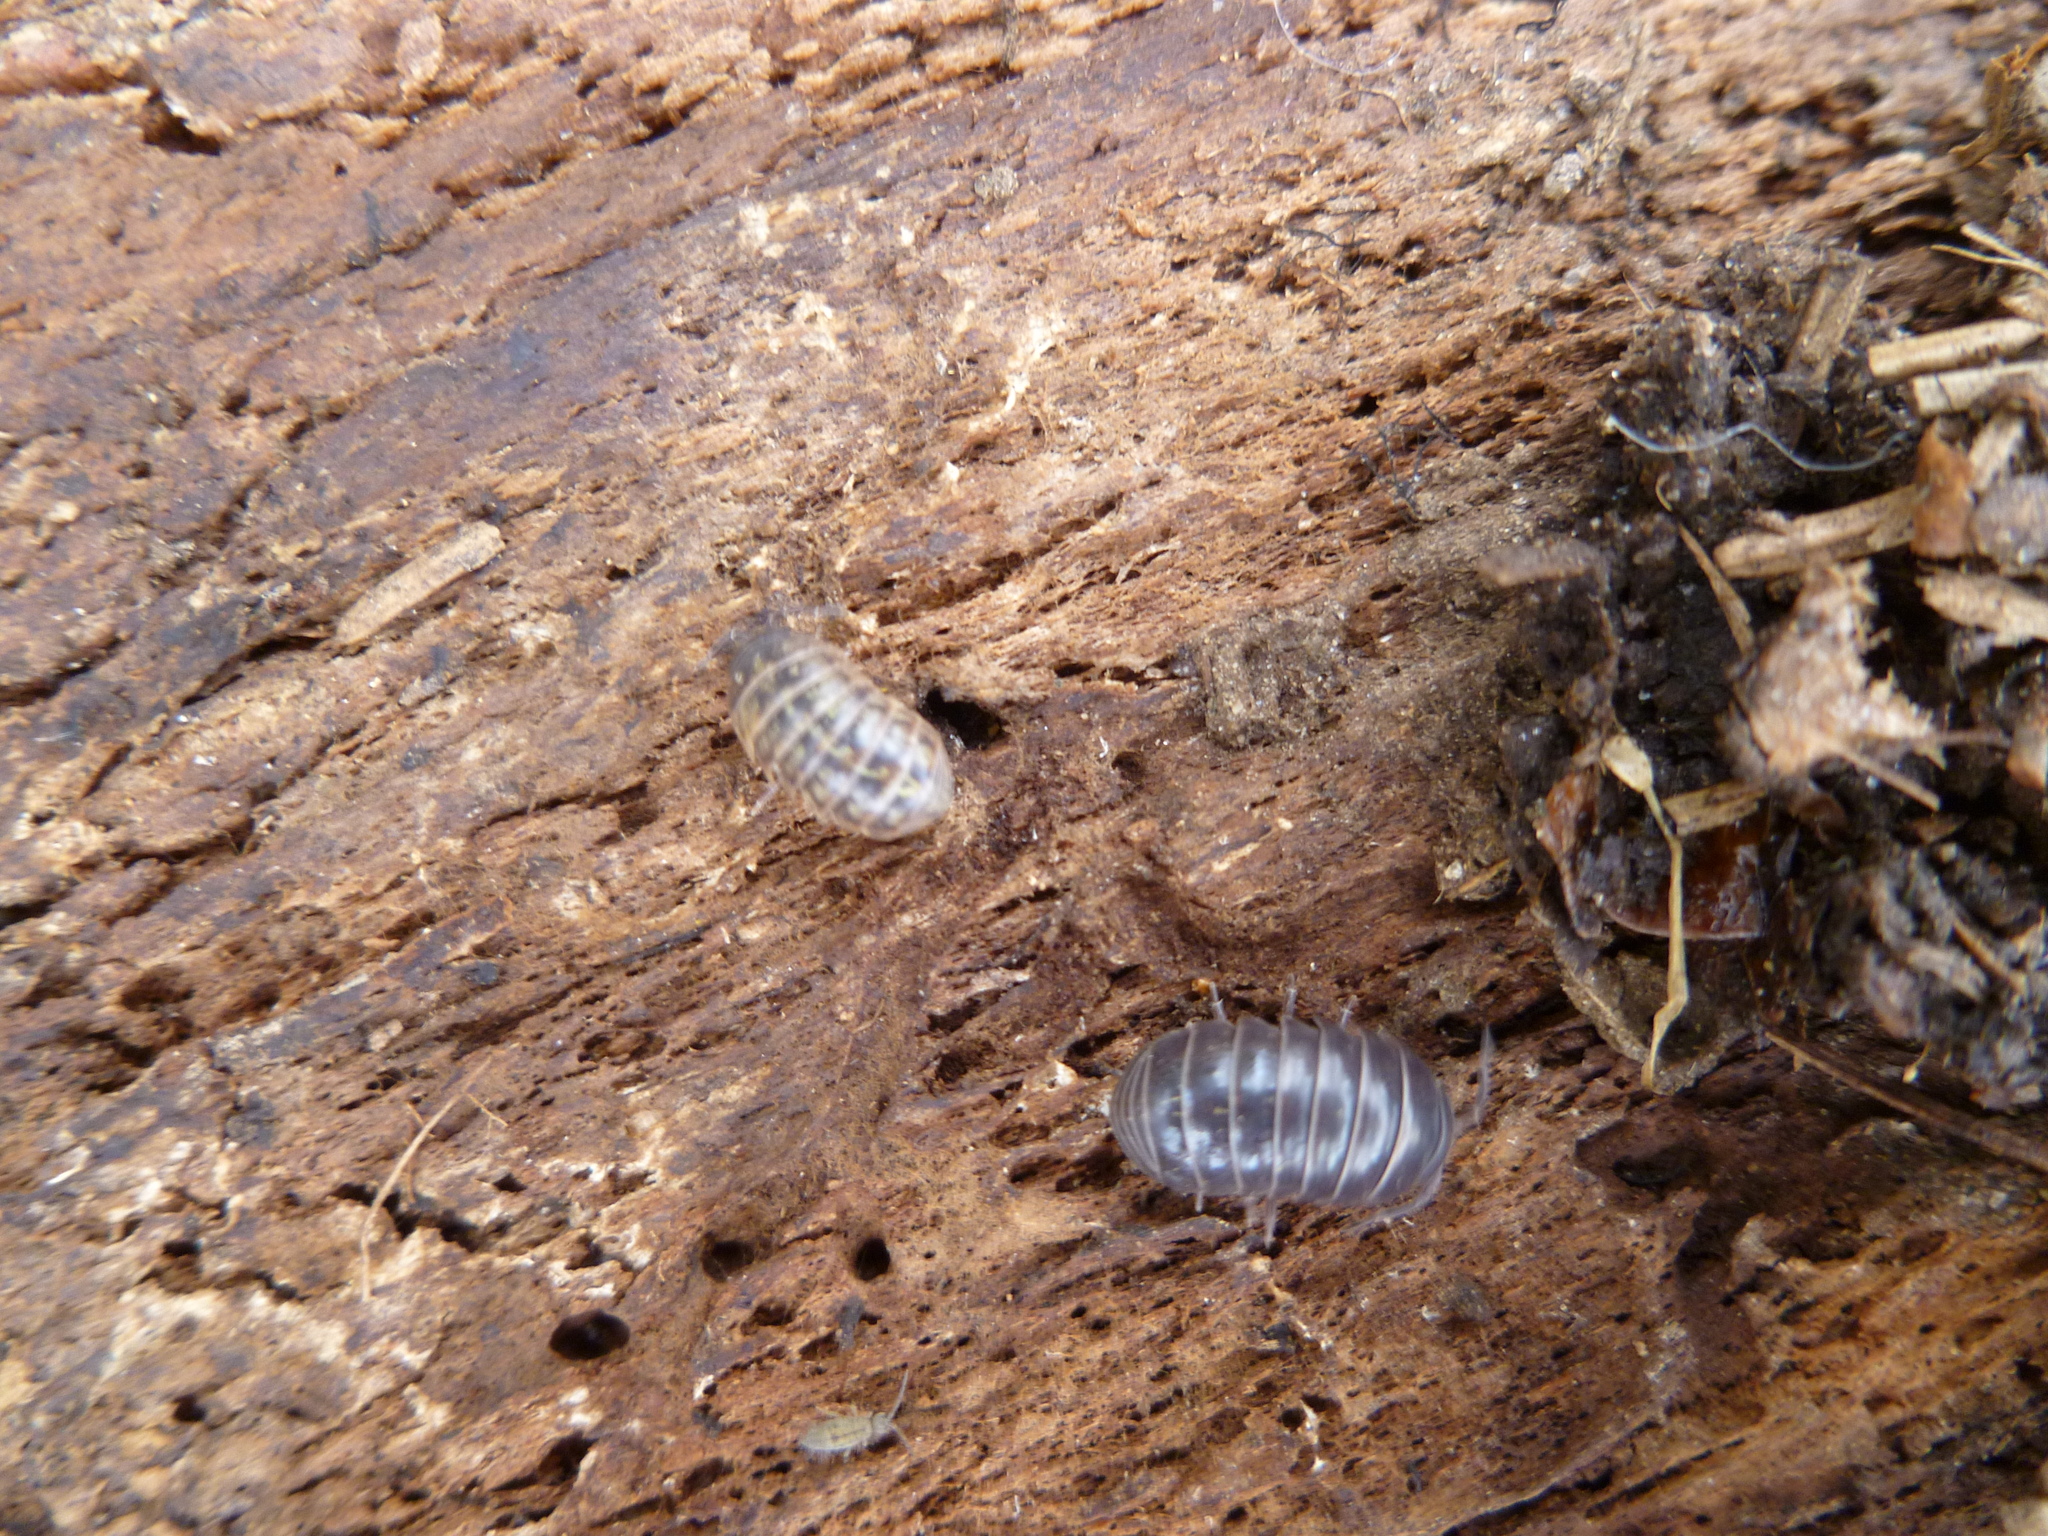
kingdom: Animalia
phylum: Arthropoda
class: Malacostraca
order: Isopoda
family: Armadillidiidae
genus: Armadillidium
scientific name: Armadillidium vulgare
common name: Common pill woodlouse
